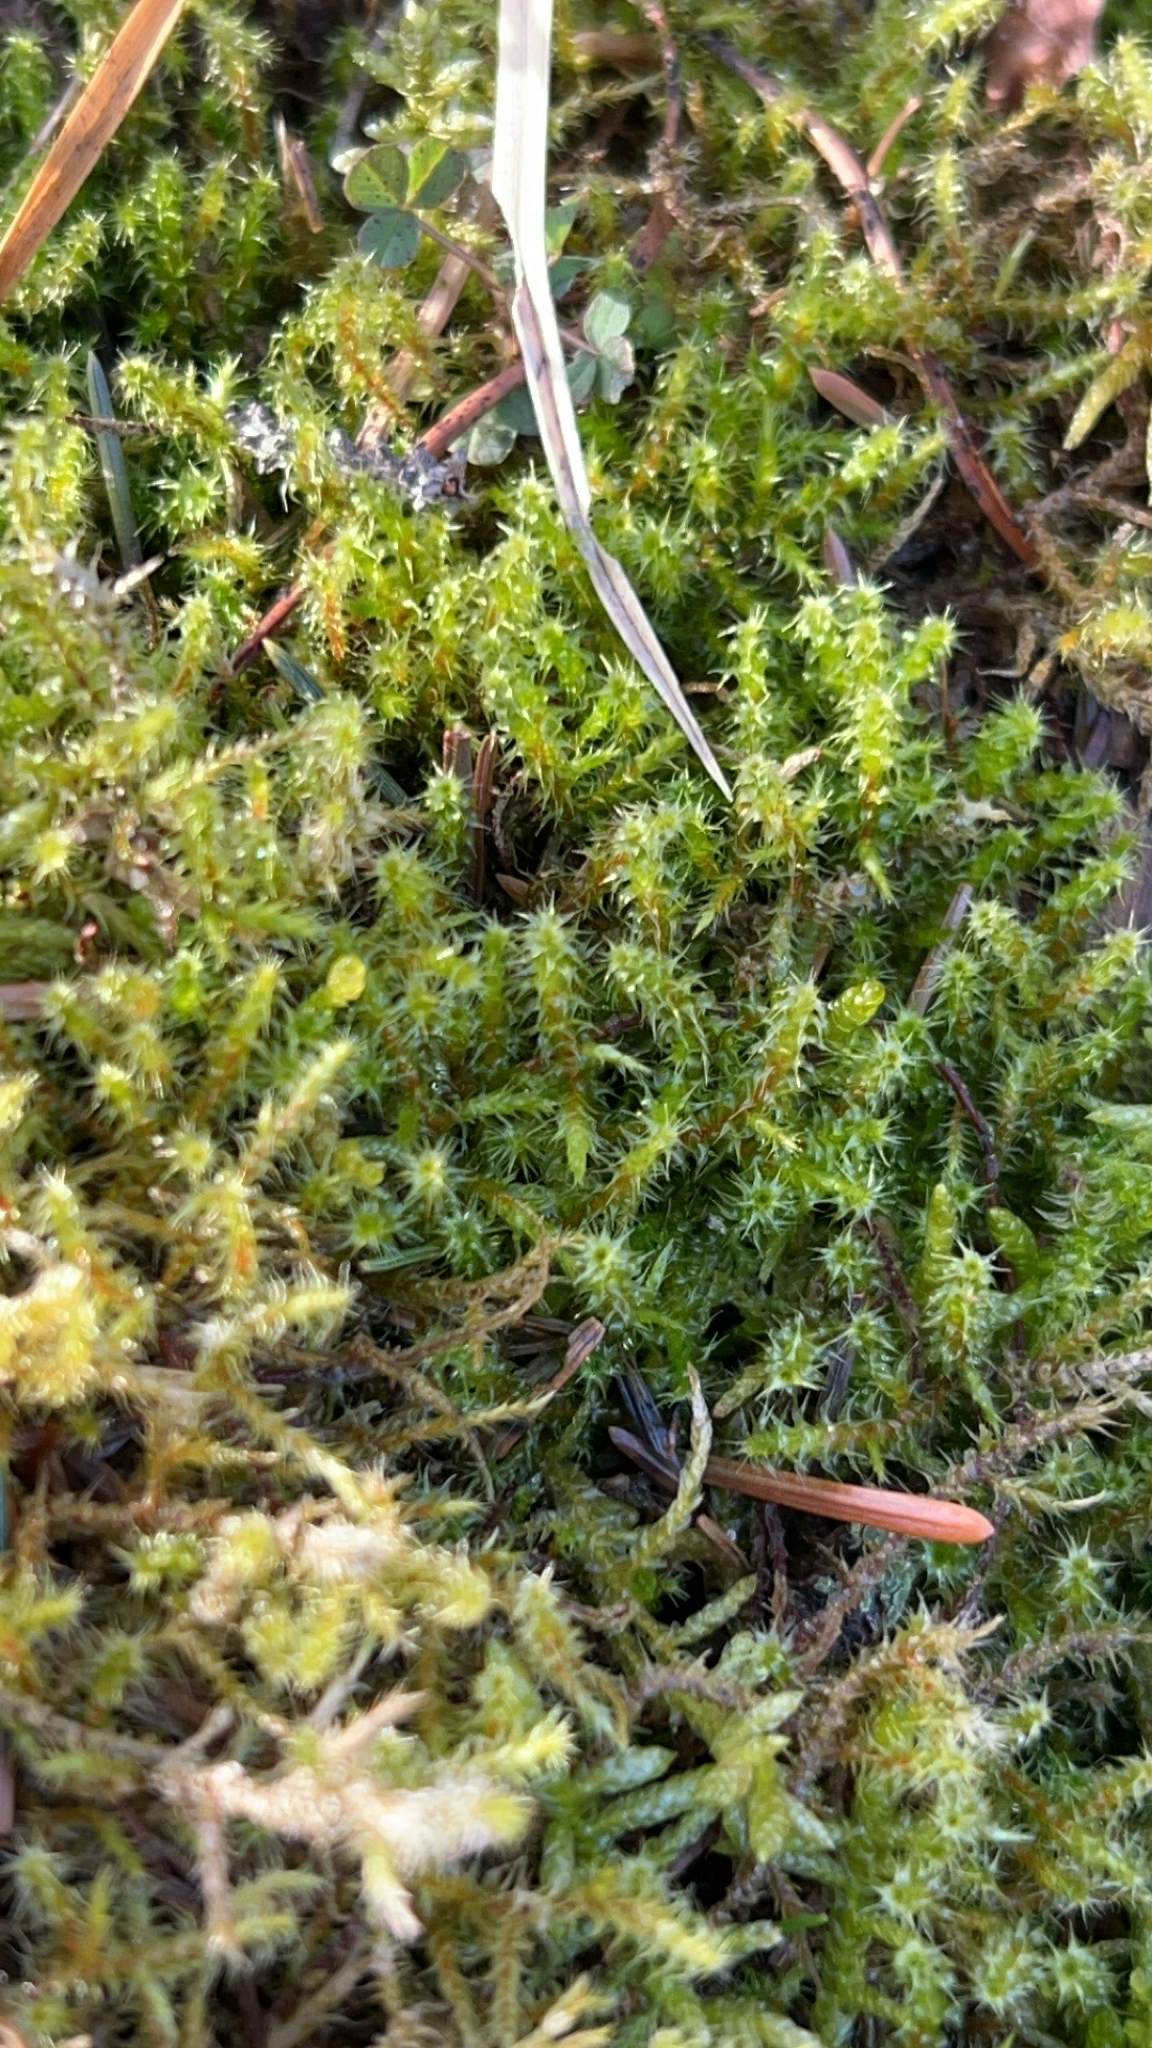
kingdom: Plantae
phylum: Bryophyta
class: Bryopsida
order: Hypnales
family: Hylocomiaceae
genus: Rhytidiadelphus
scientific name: Rhytidiadelphus squarrosus
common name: Springy turf-moss
